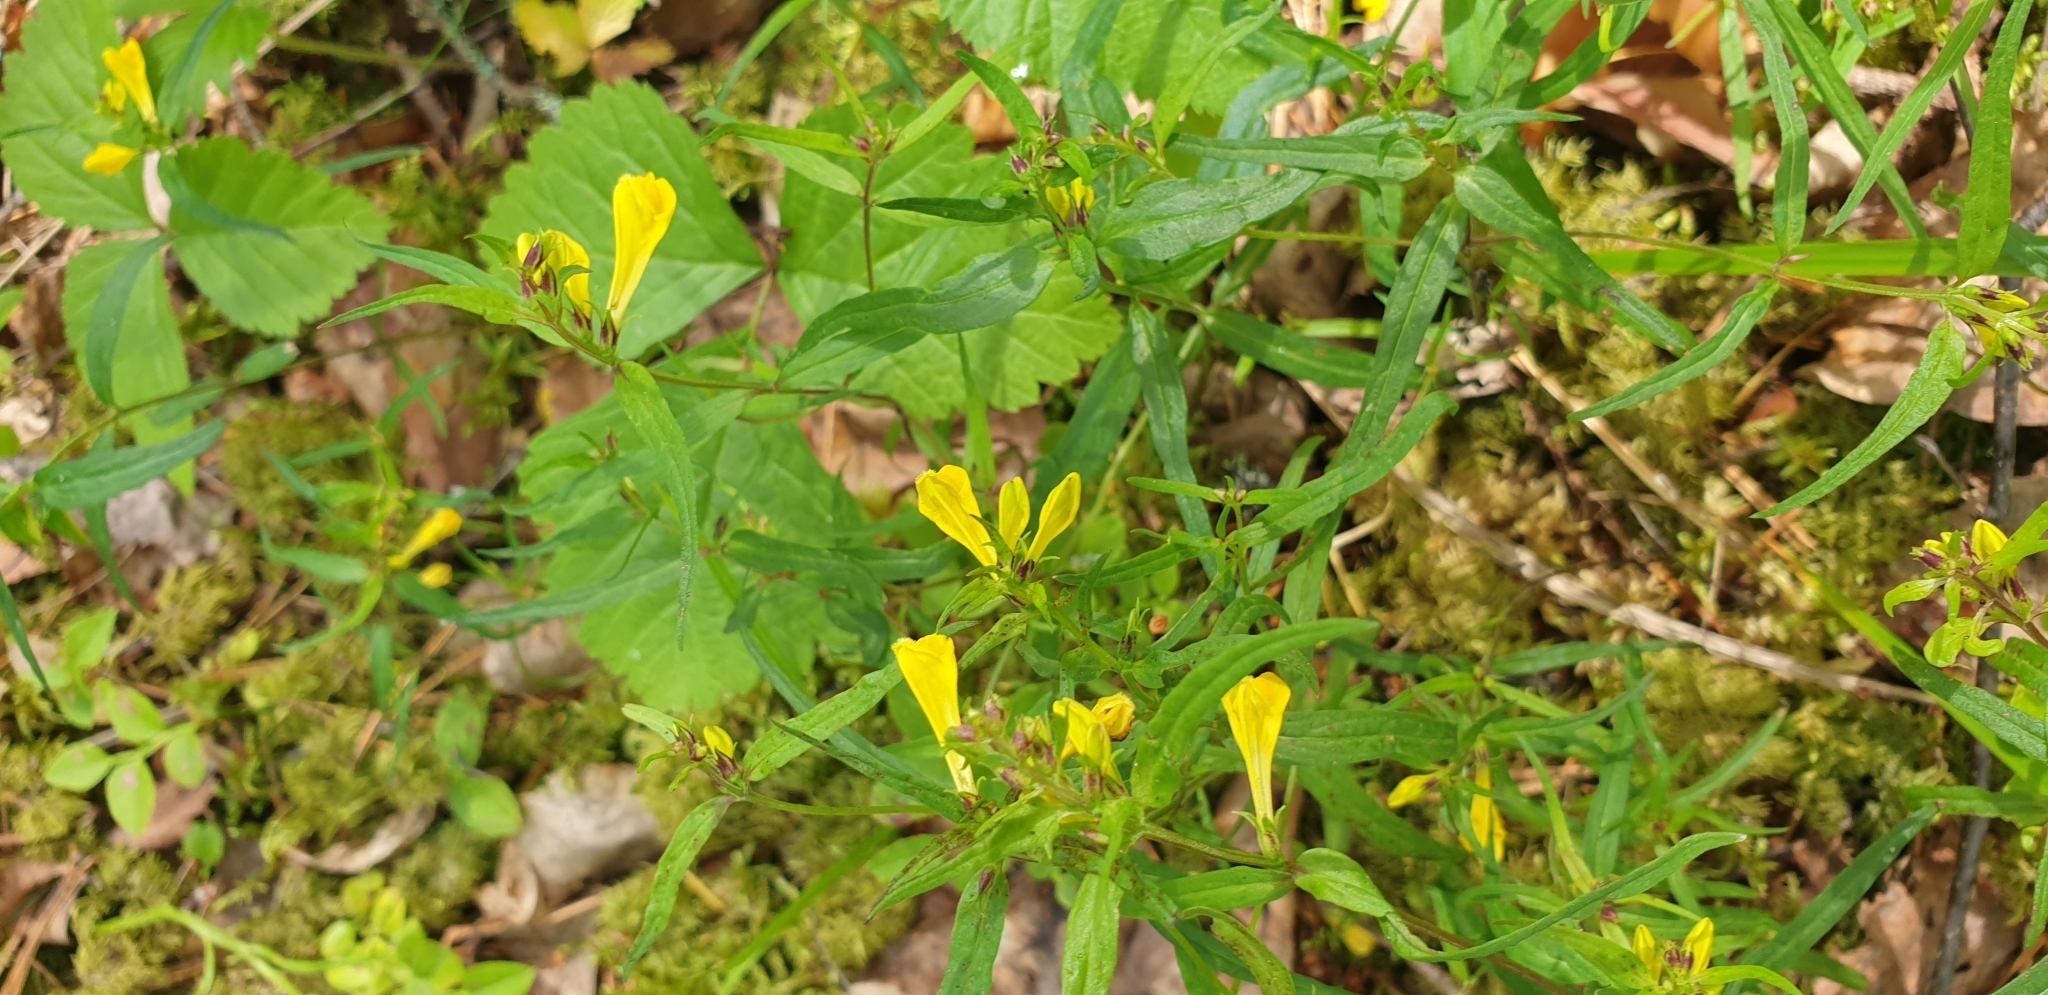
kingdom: Plantae
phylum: Tracheophyta
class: Magnoliopsida
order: Lamiales
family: Orobanchaceae
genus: Melampyrum
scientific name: Melampyrum pratense
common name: Common cow-wheat
